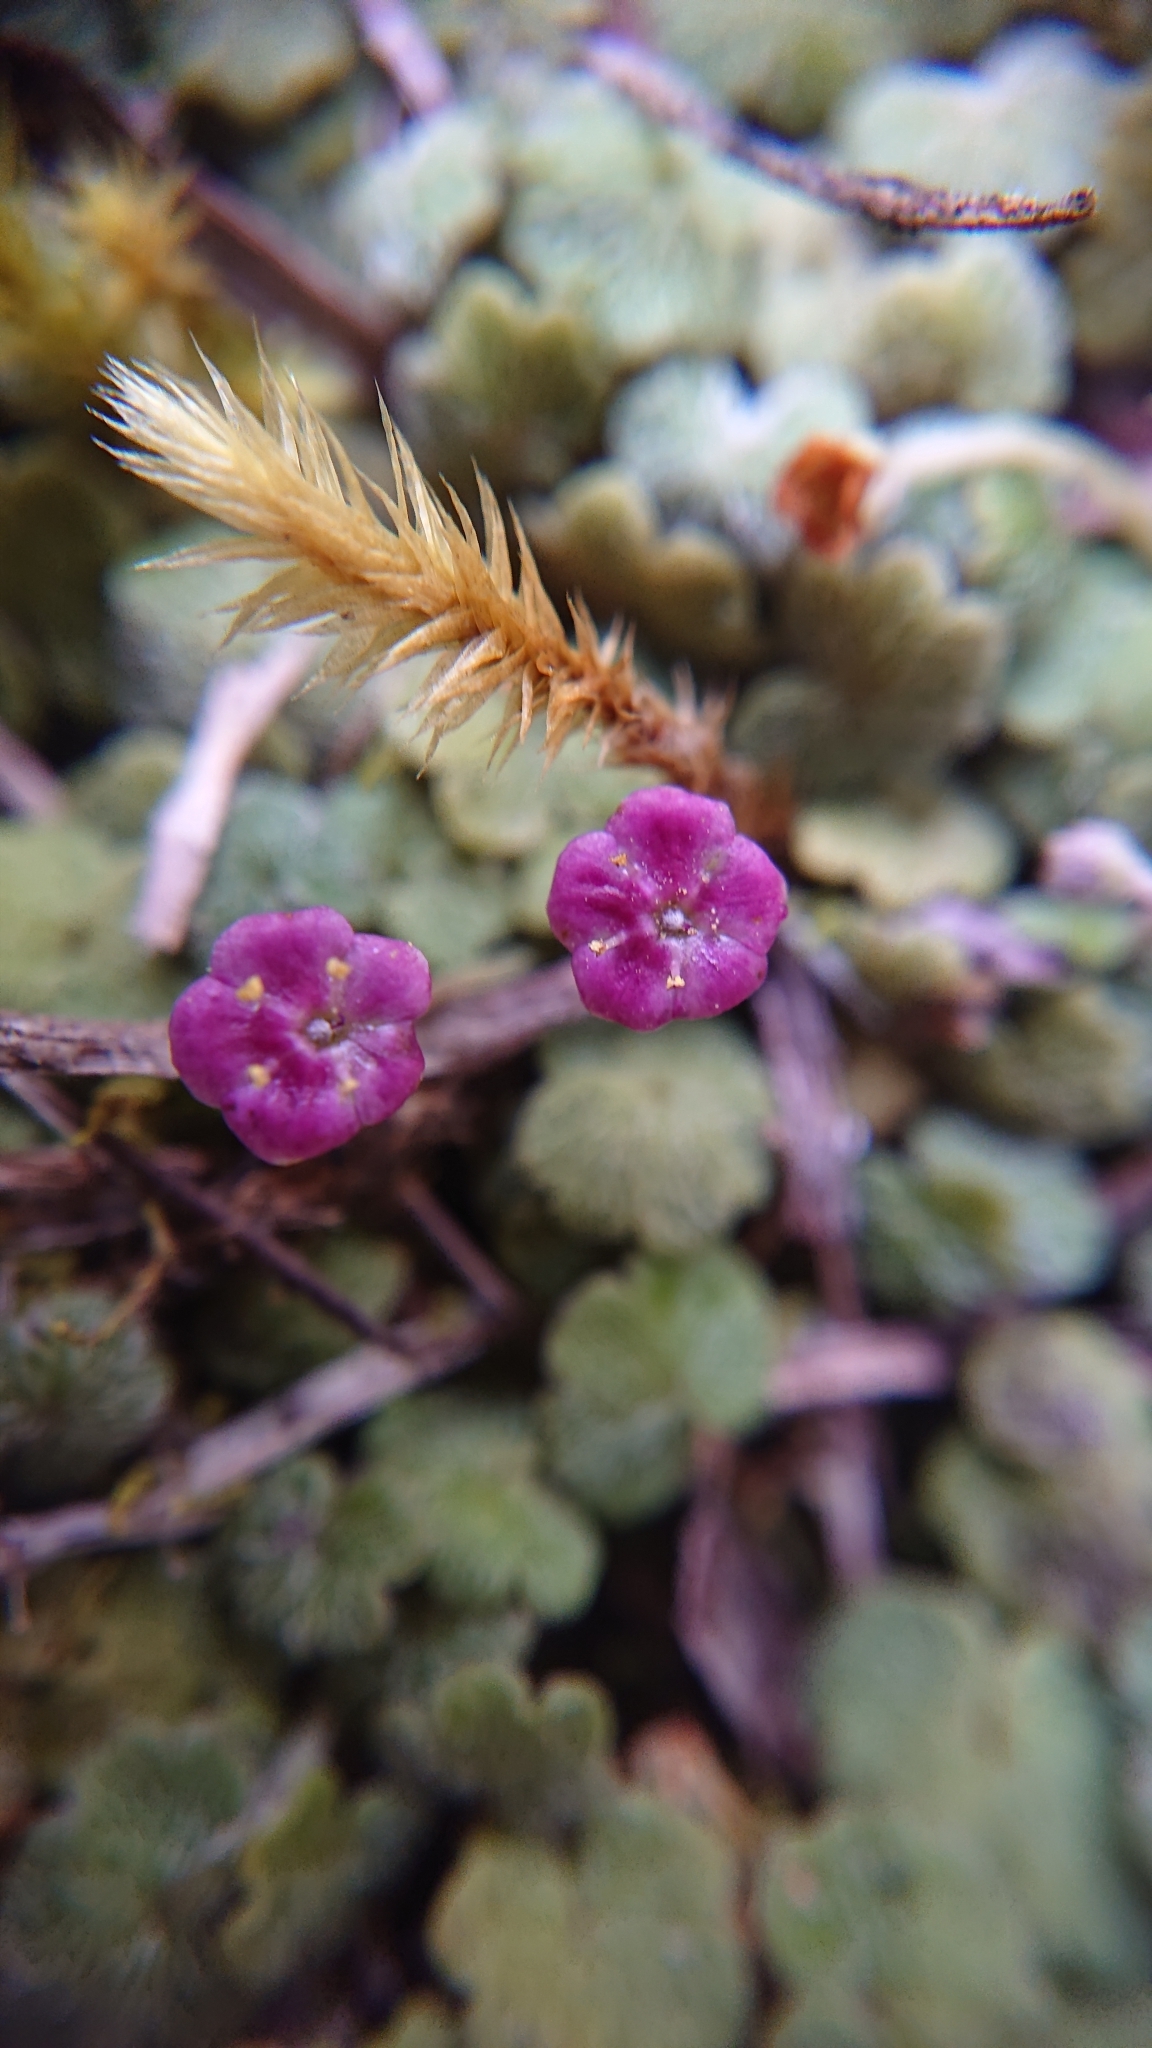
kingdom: Plantae
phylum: Tracheophyta
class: Magnoliopsida
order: Lamiales
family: Plantaginaceae
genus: Sibthorpia
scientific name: Sibthorpia repens
